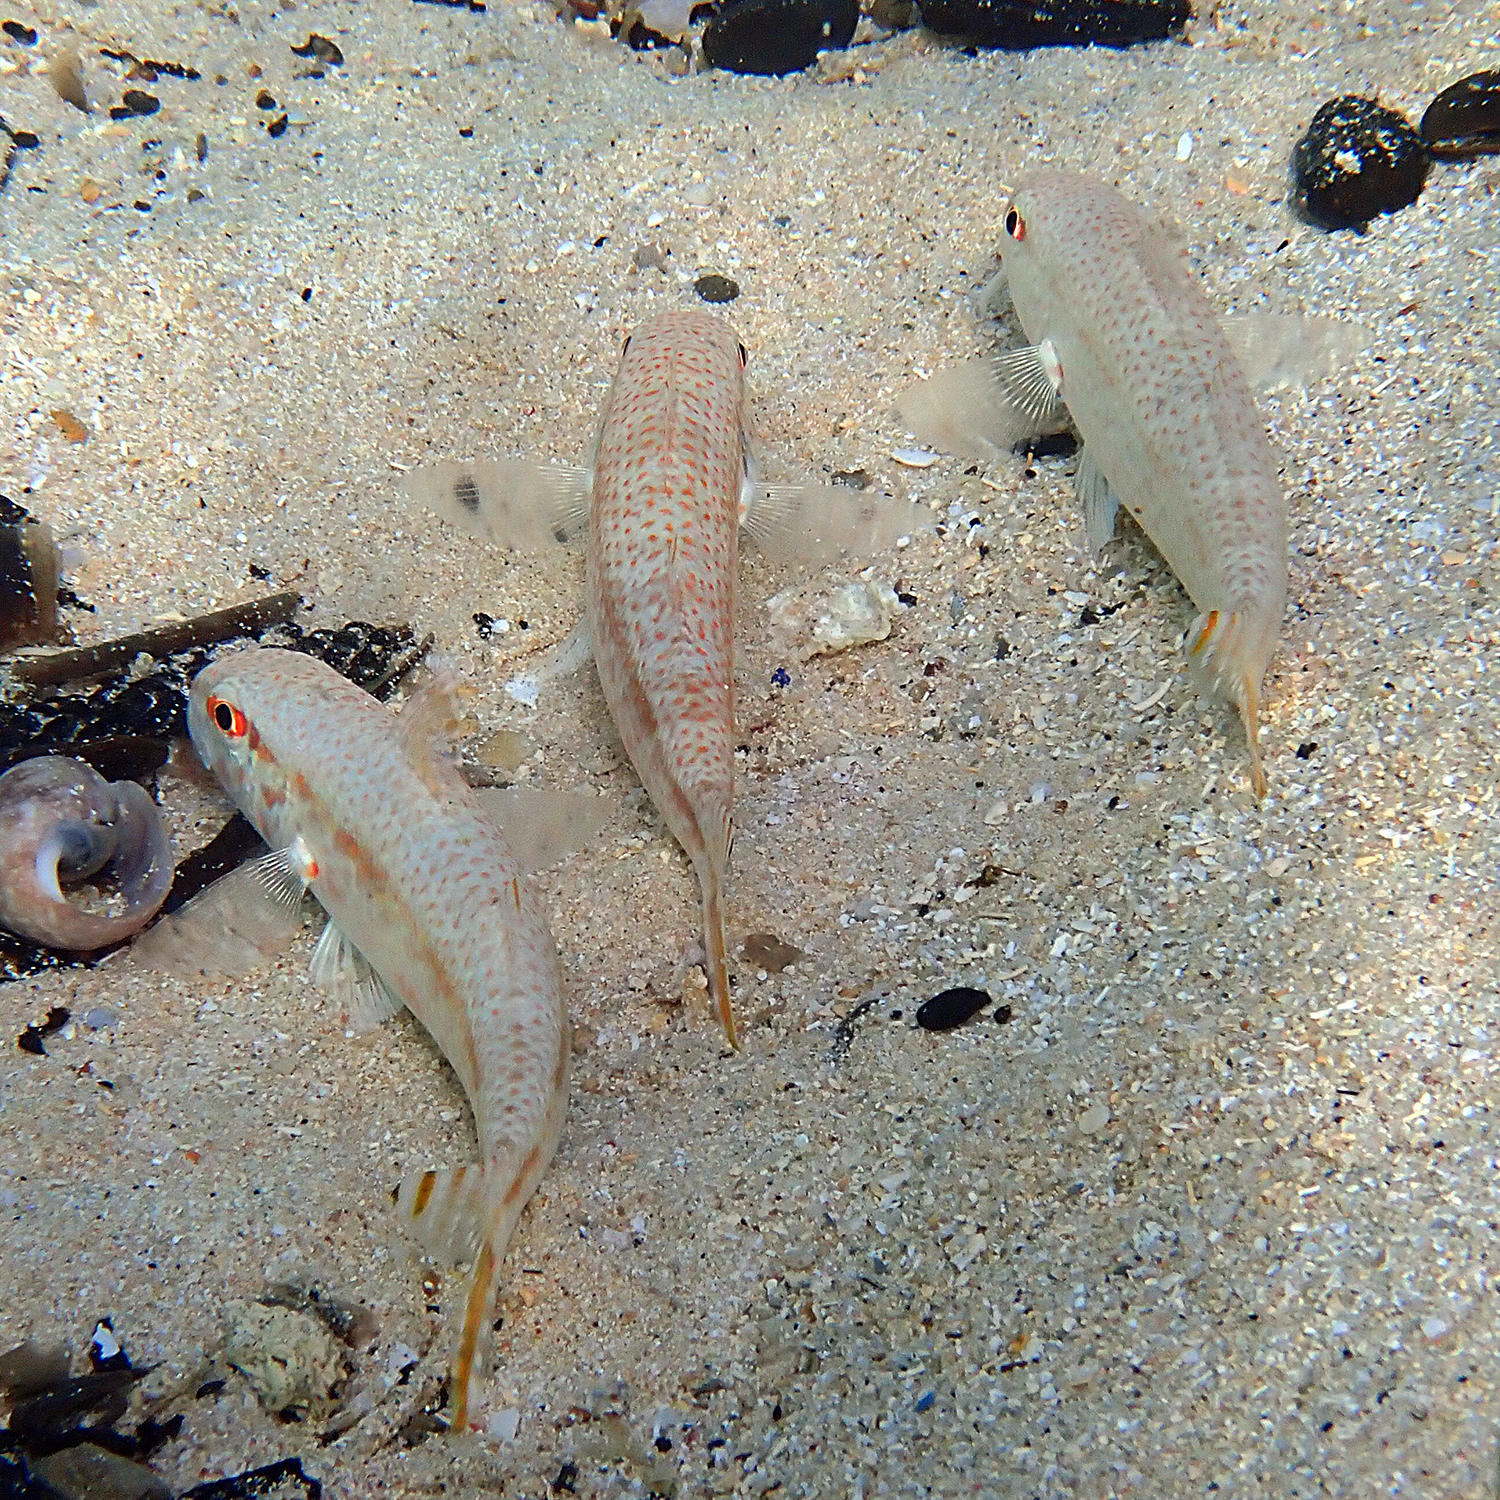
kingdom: Animalia
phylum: Chordata
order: Perciformes
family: Mullidae
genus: Upeneus
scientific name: Upeneus francisi
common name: Francis' goatfish
